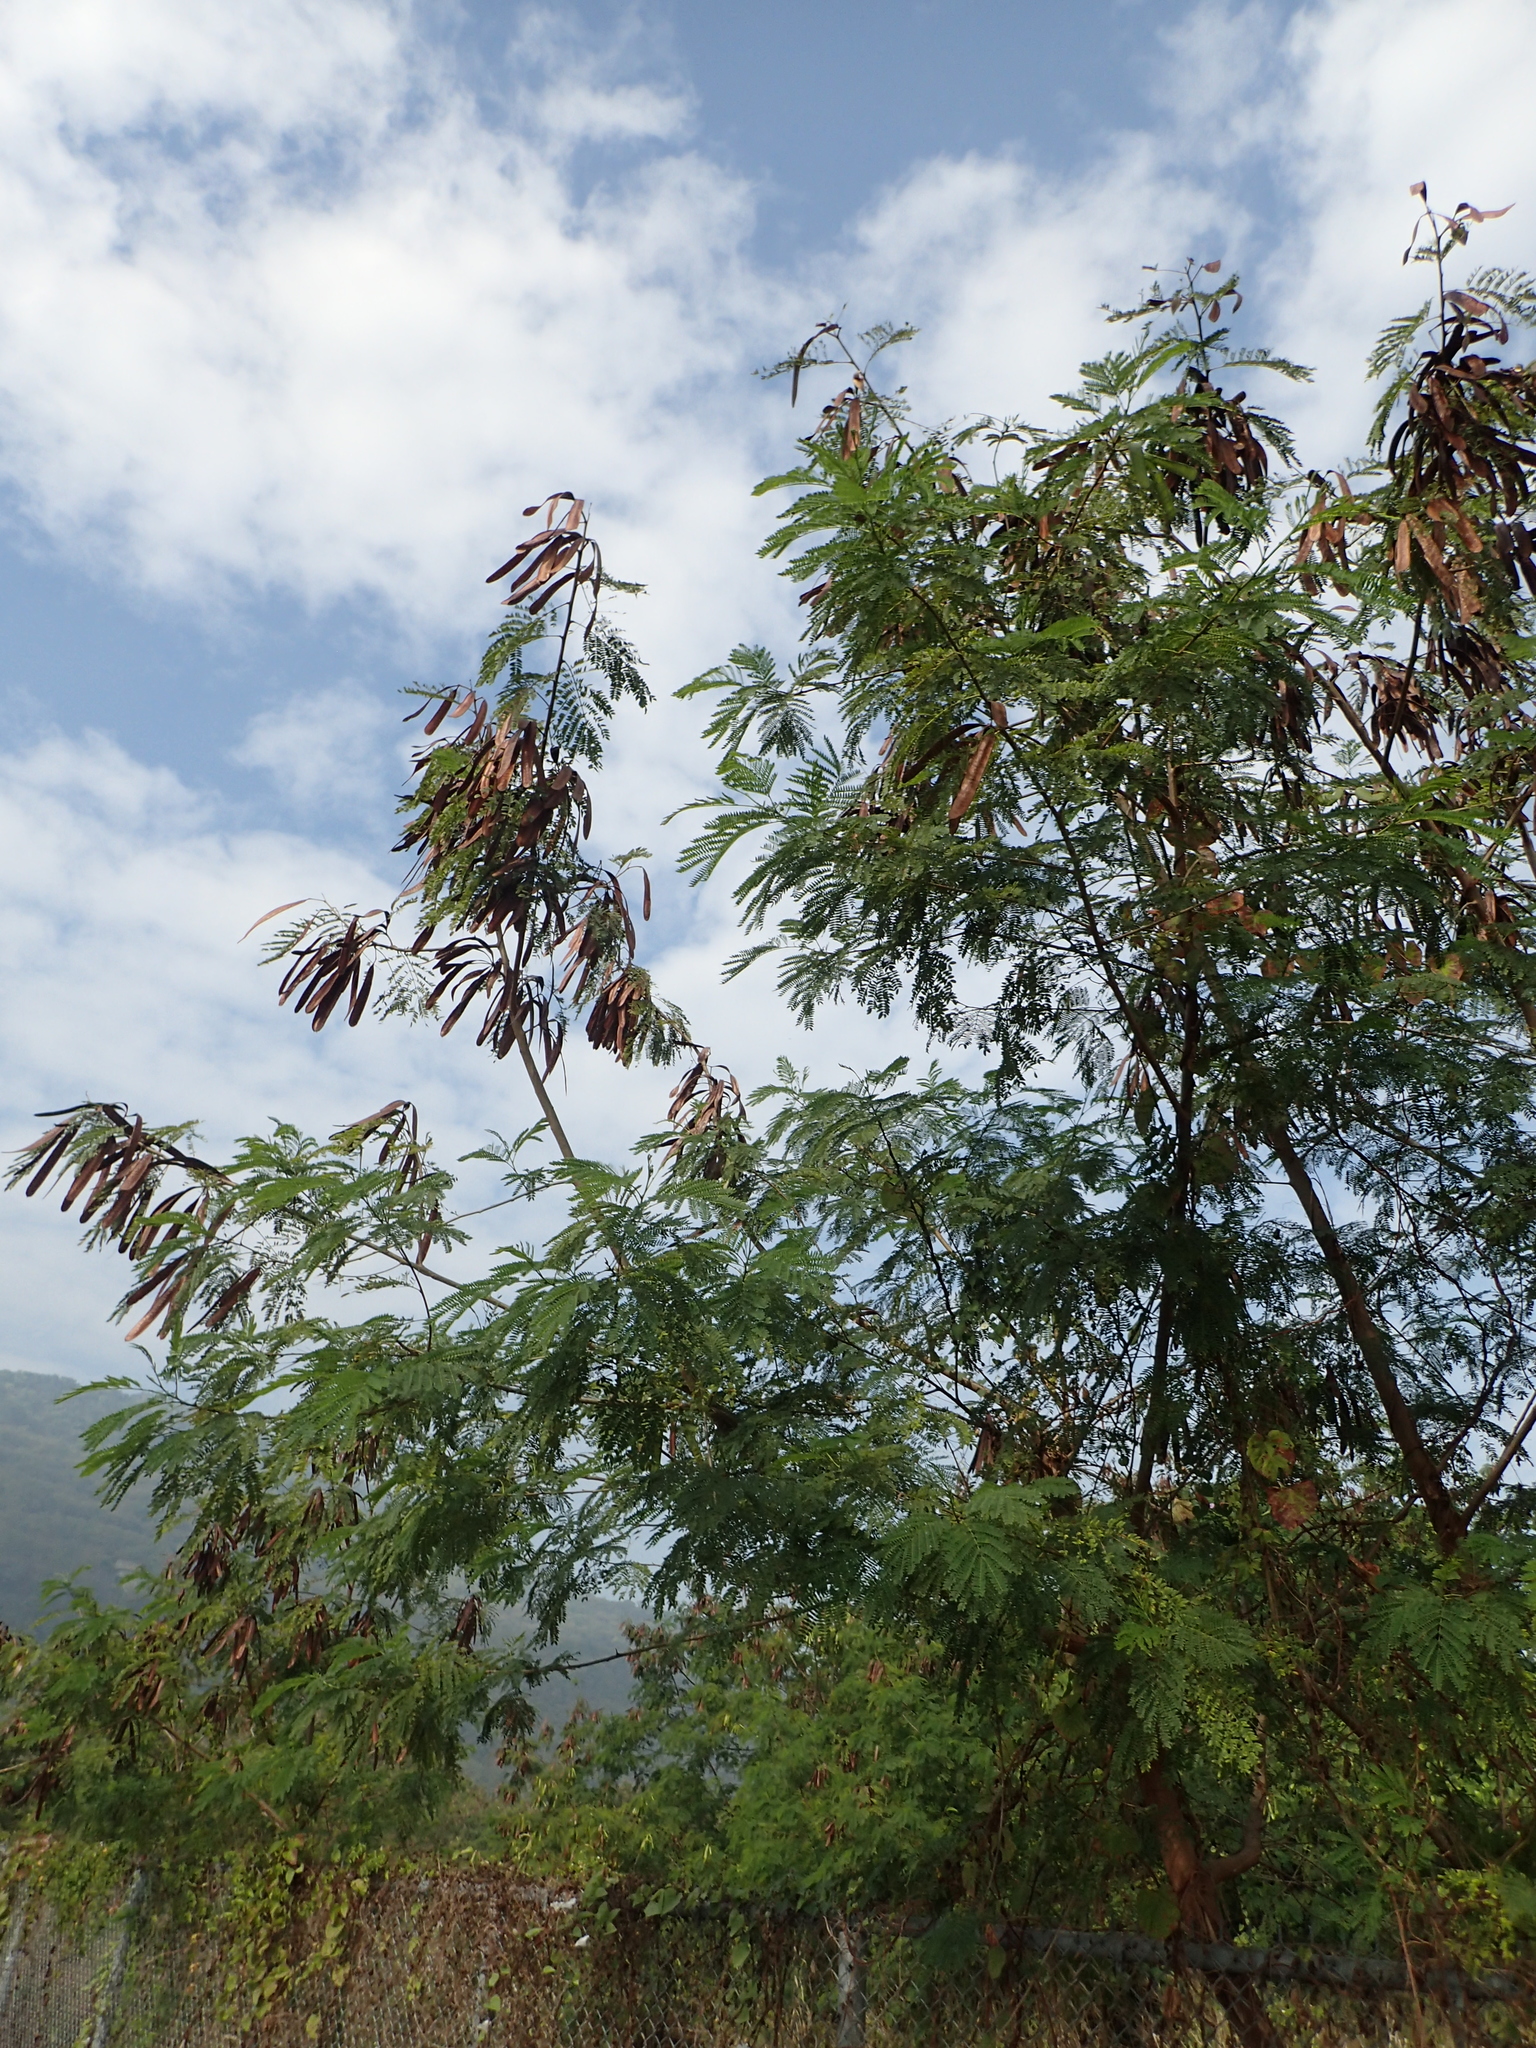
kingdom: Plantae
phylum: Tracheophyta
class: Magnoliopsida
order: Fabales
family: Fabaceae
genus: Leucaena
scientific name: Leucaena leucocephala
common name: White leadtree
